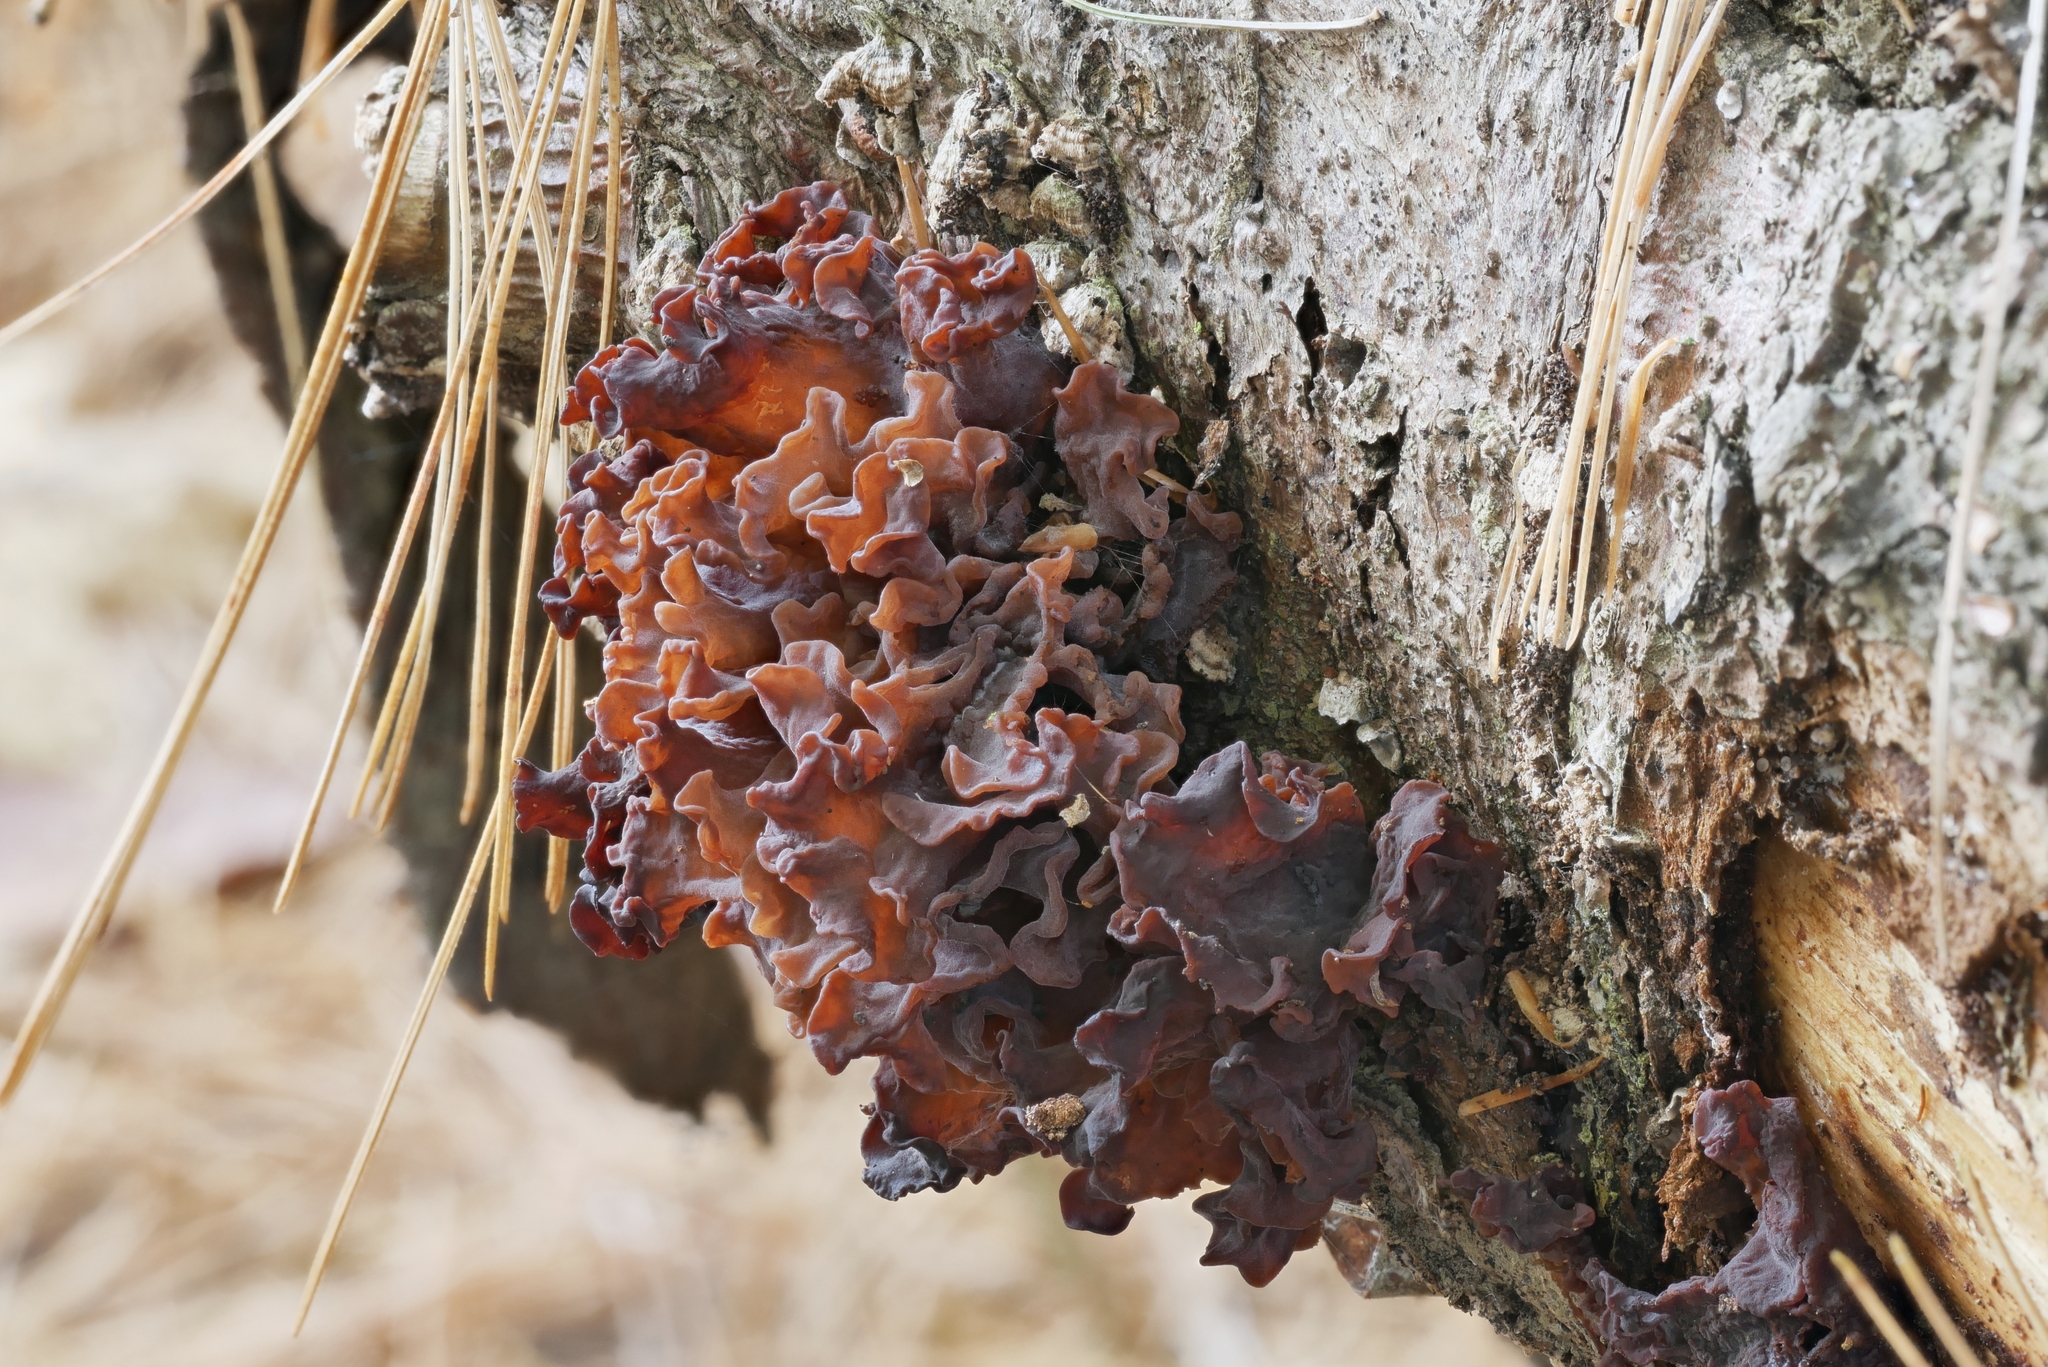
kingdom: Fungi
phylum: Basidiomycota
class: Tremellomycetes
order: Tremellales
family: Tremellaceae
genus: Phaeotremella
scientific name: Phaeotremella foliacea
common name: Leafy brain
